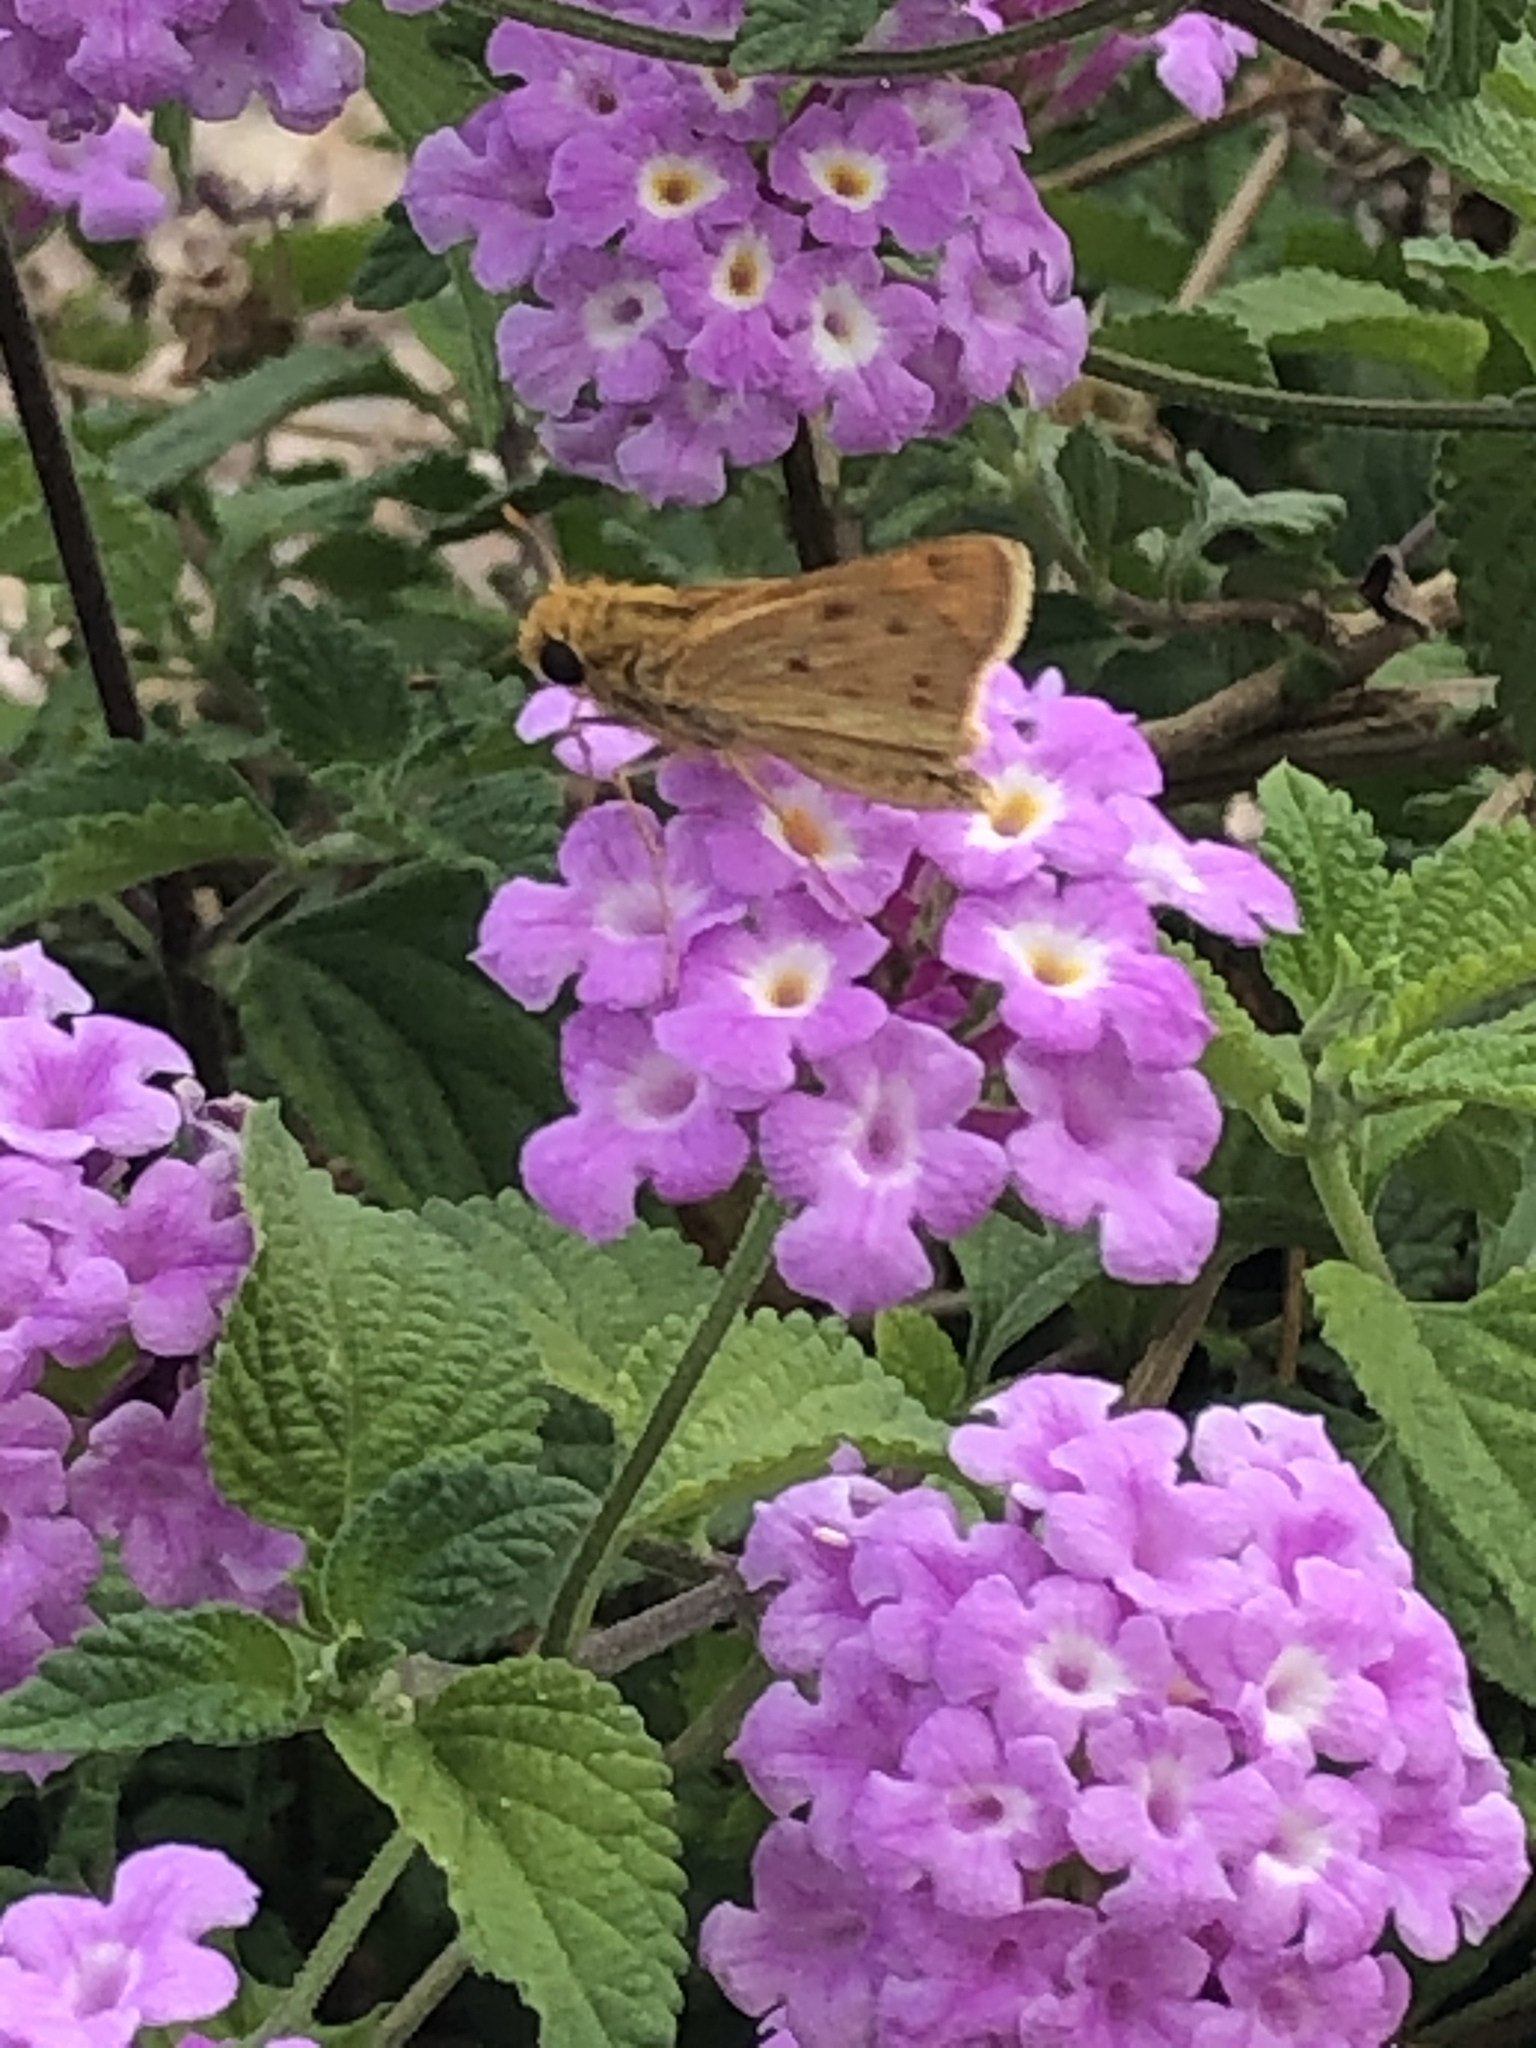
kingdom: Animalia
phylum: Arthropoda
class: Insecta
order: Lepidoptera
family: Hesperiidae
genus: Hylephila
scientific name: Hylephila phyleus
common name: Fiery skipper
